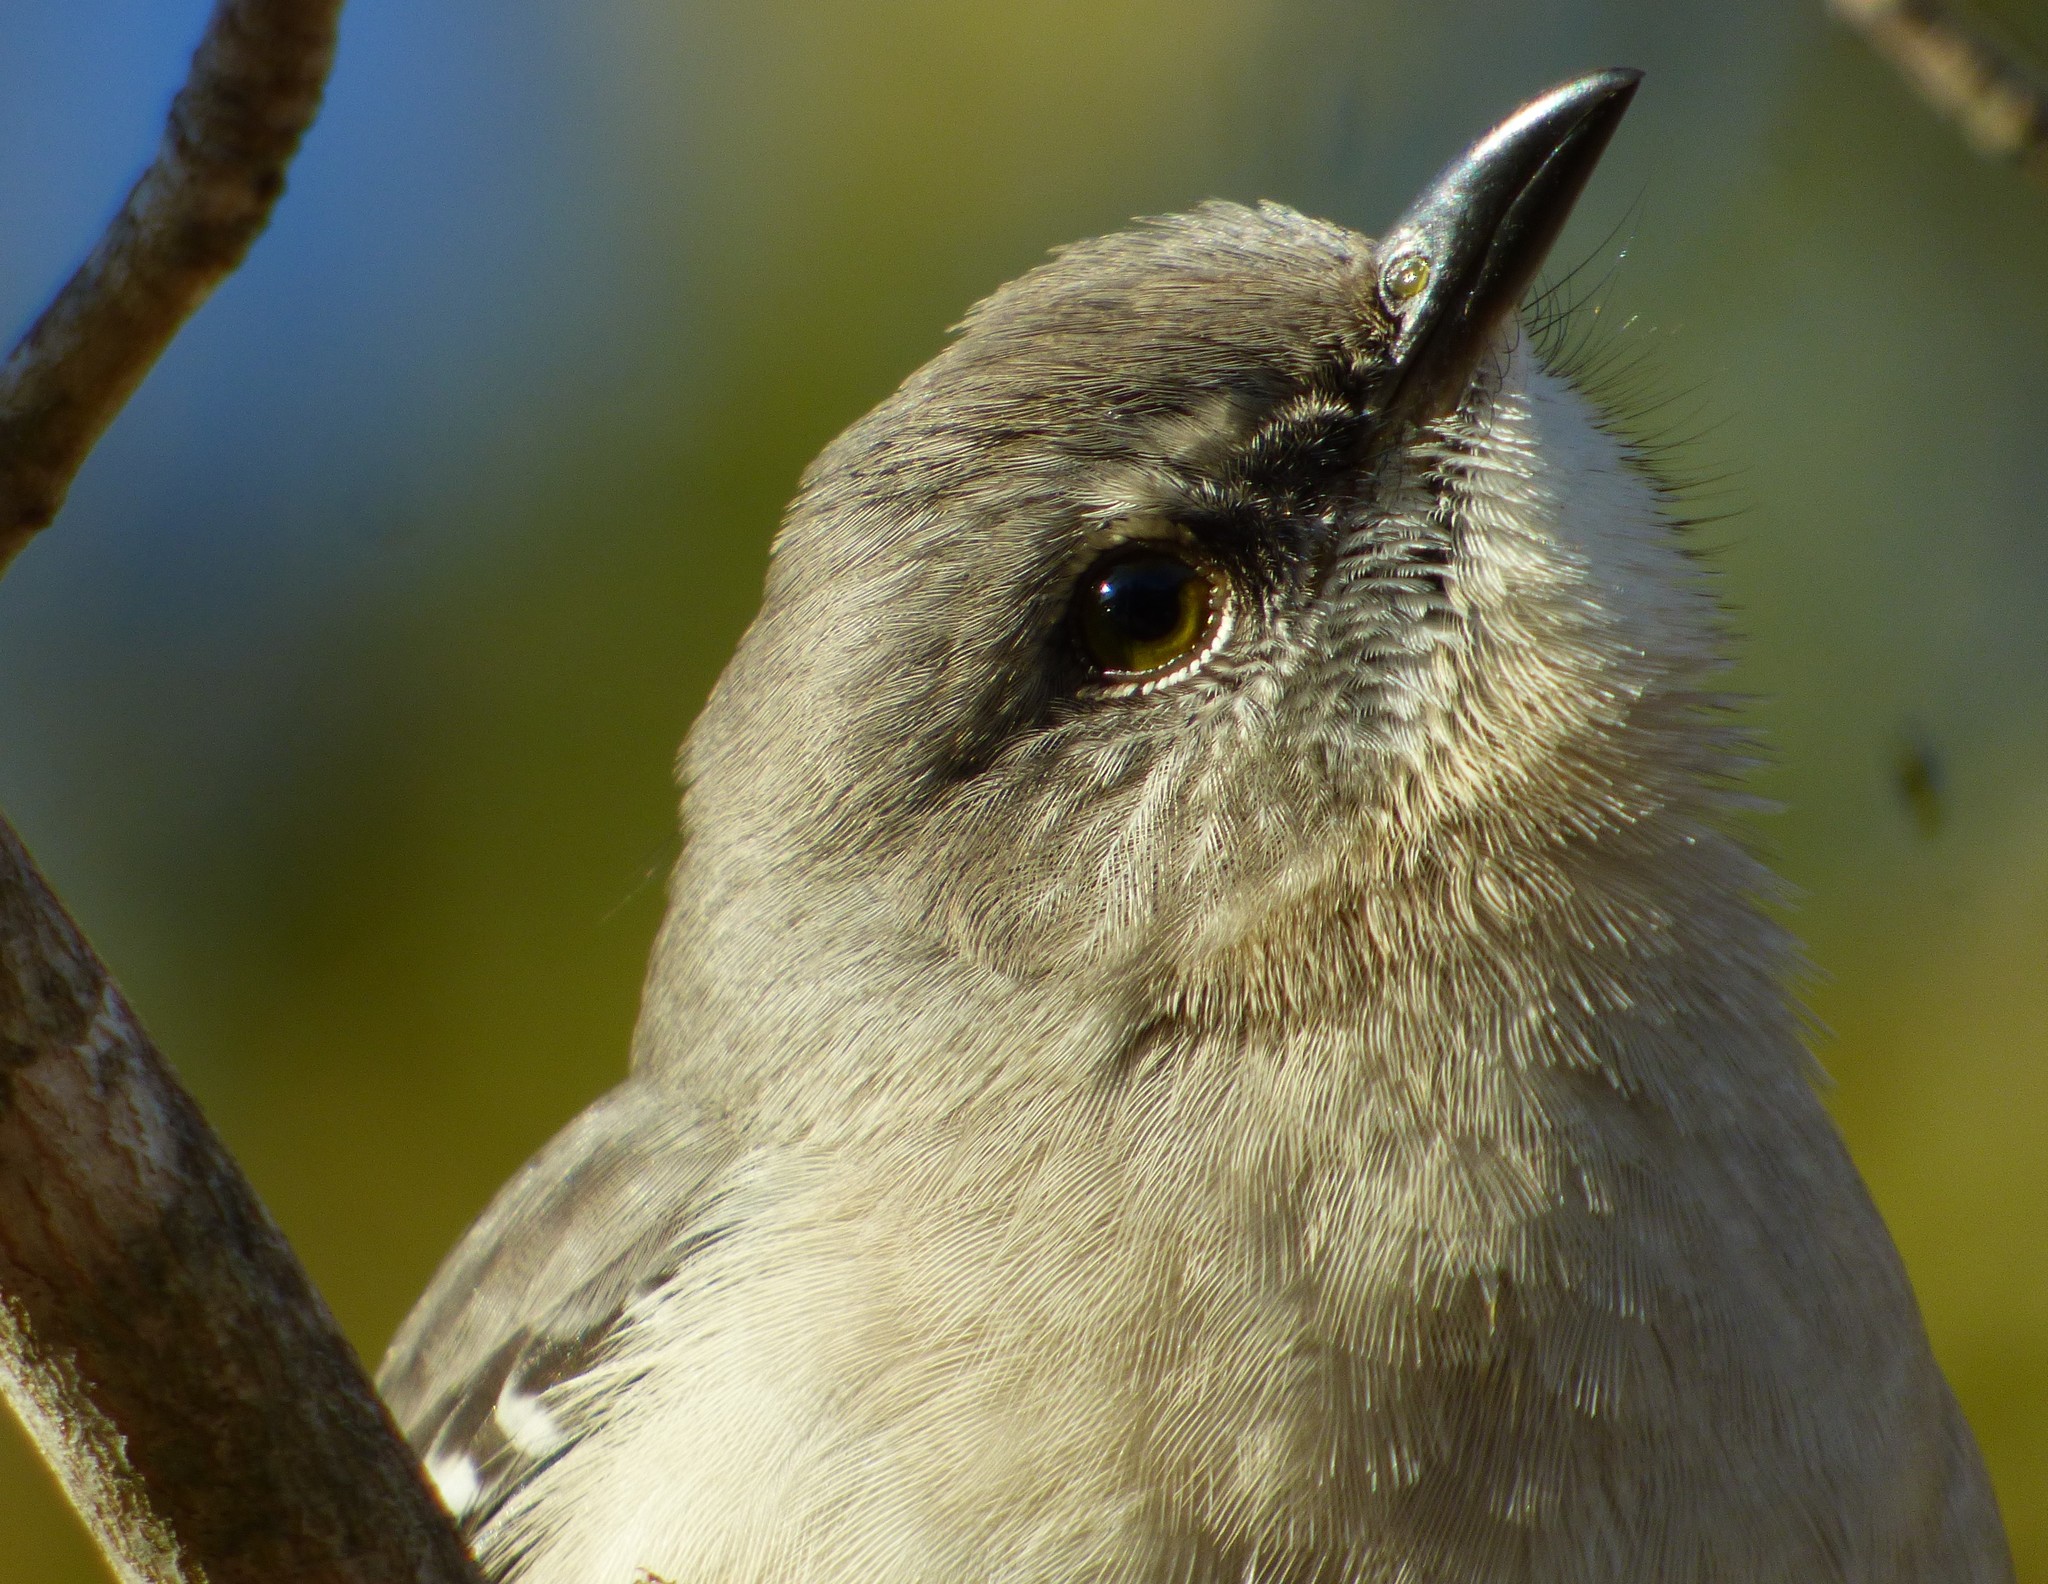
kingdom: Animalia
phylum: Chordata
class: Aves
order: Passeriformes
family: Mimidae
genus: Mimus
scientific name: Mimus polyglottos
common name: Northern mockingbird
